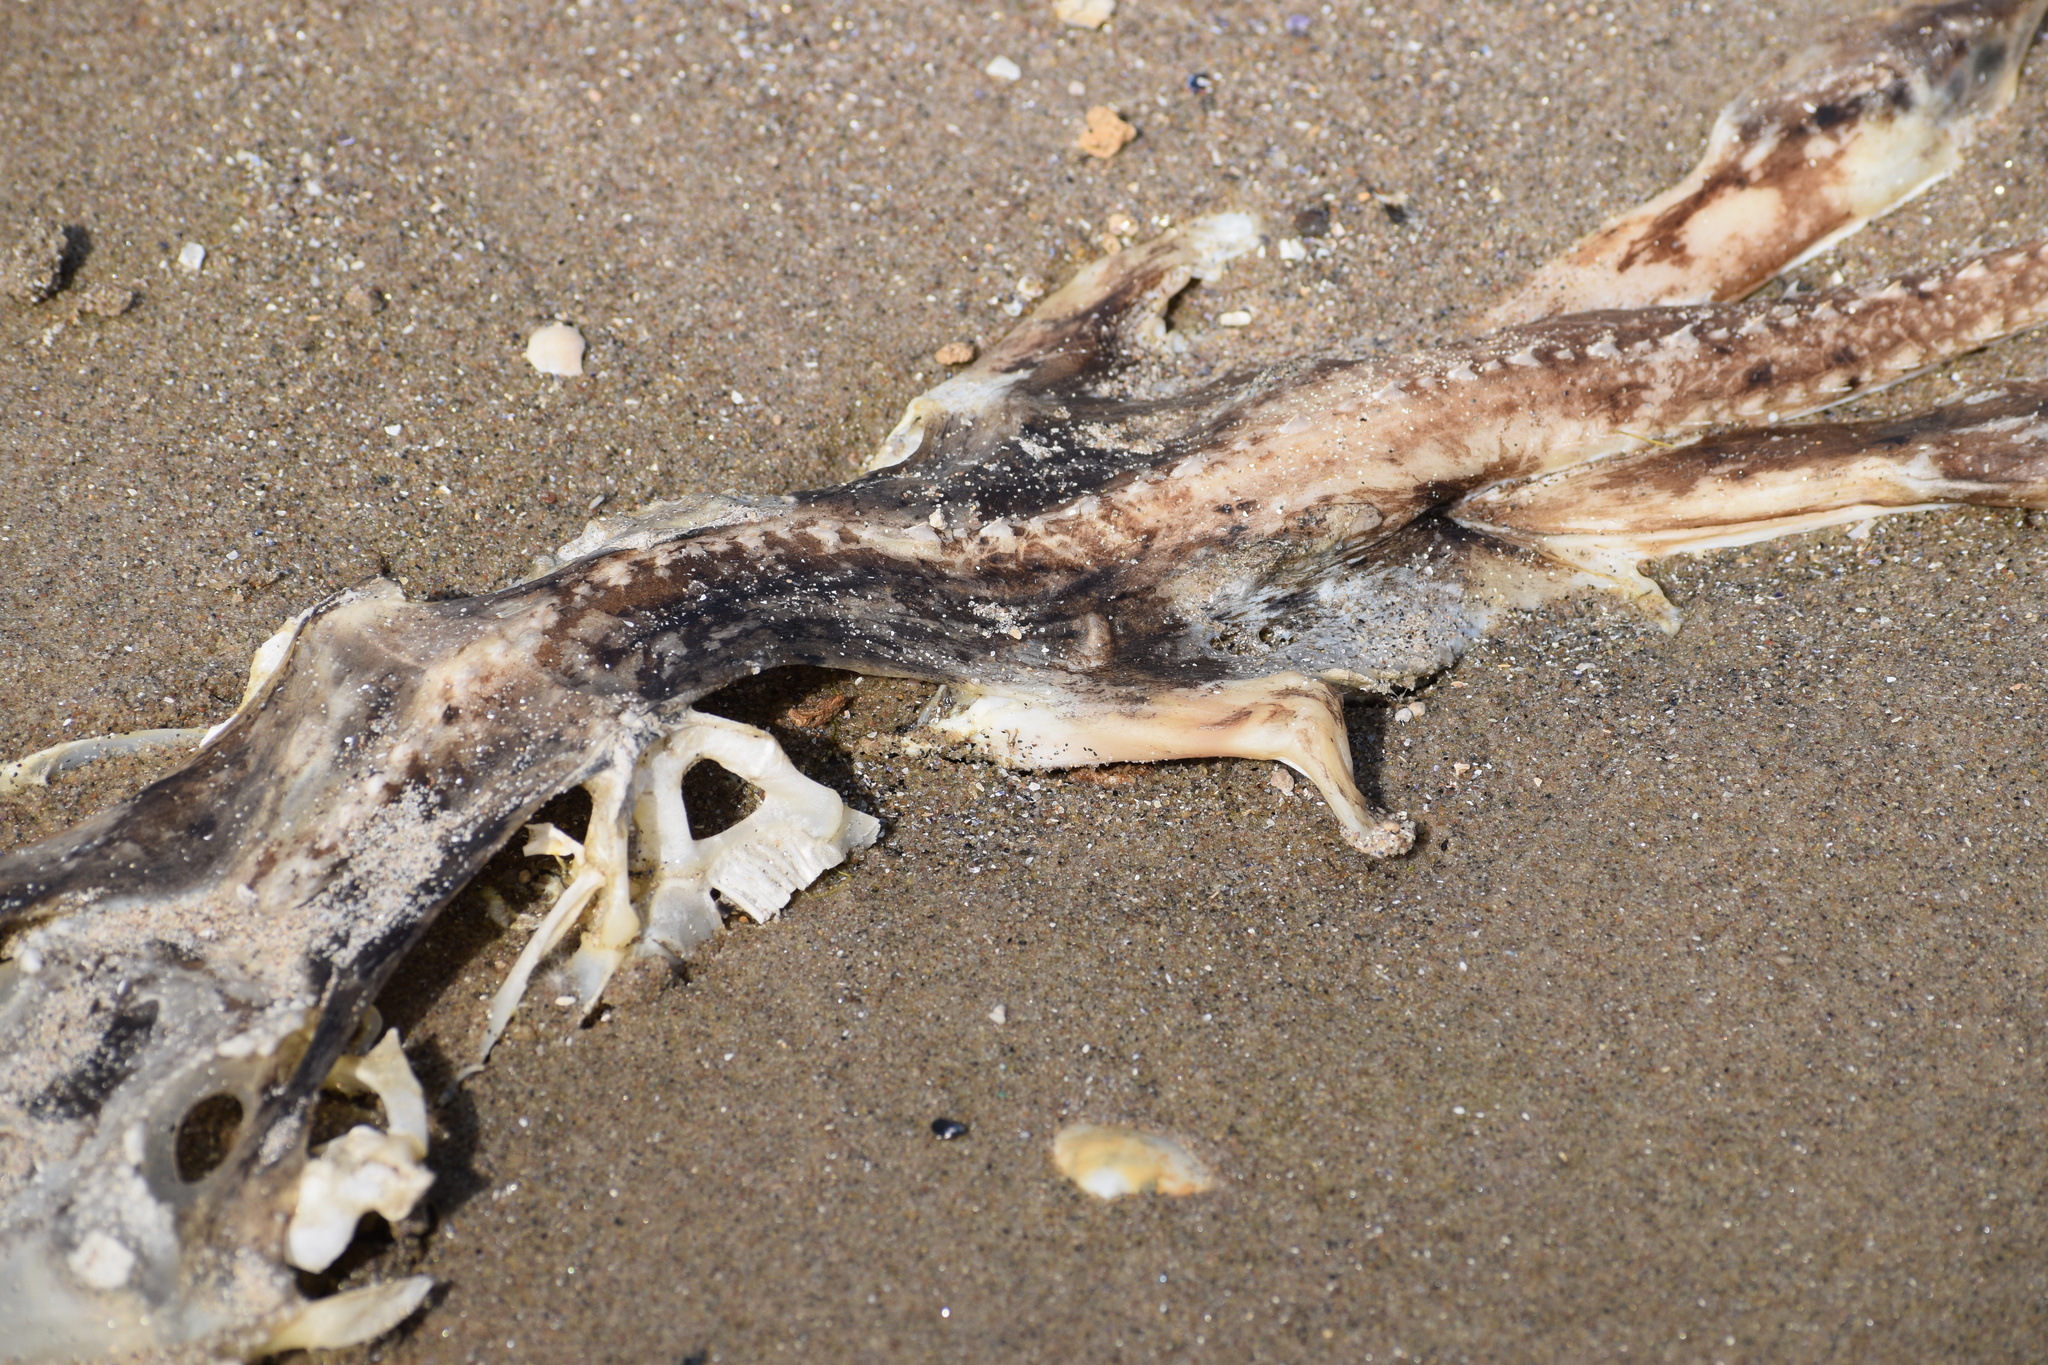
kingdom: Animalia
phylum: Chordata
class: Elasmobranchii
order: Rajiformes
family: Rajidae
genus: Raja
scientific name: Raja eglanteria
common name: Clearnose skate
